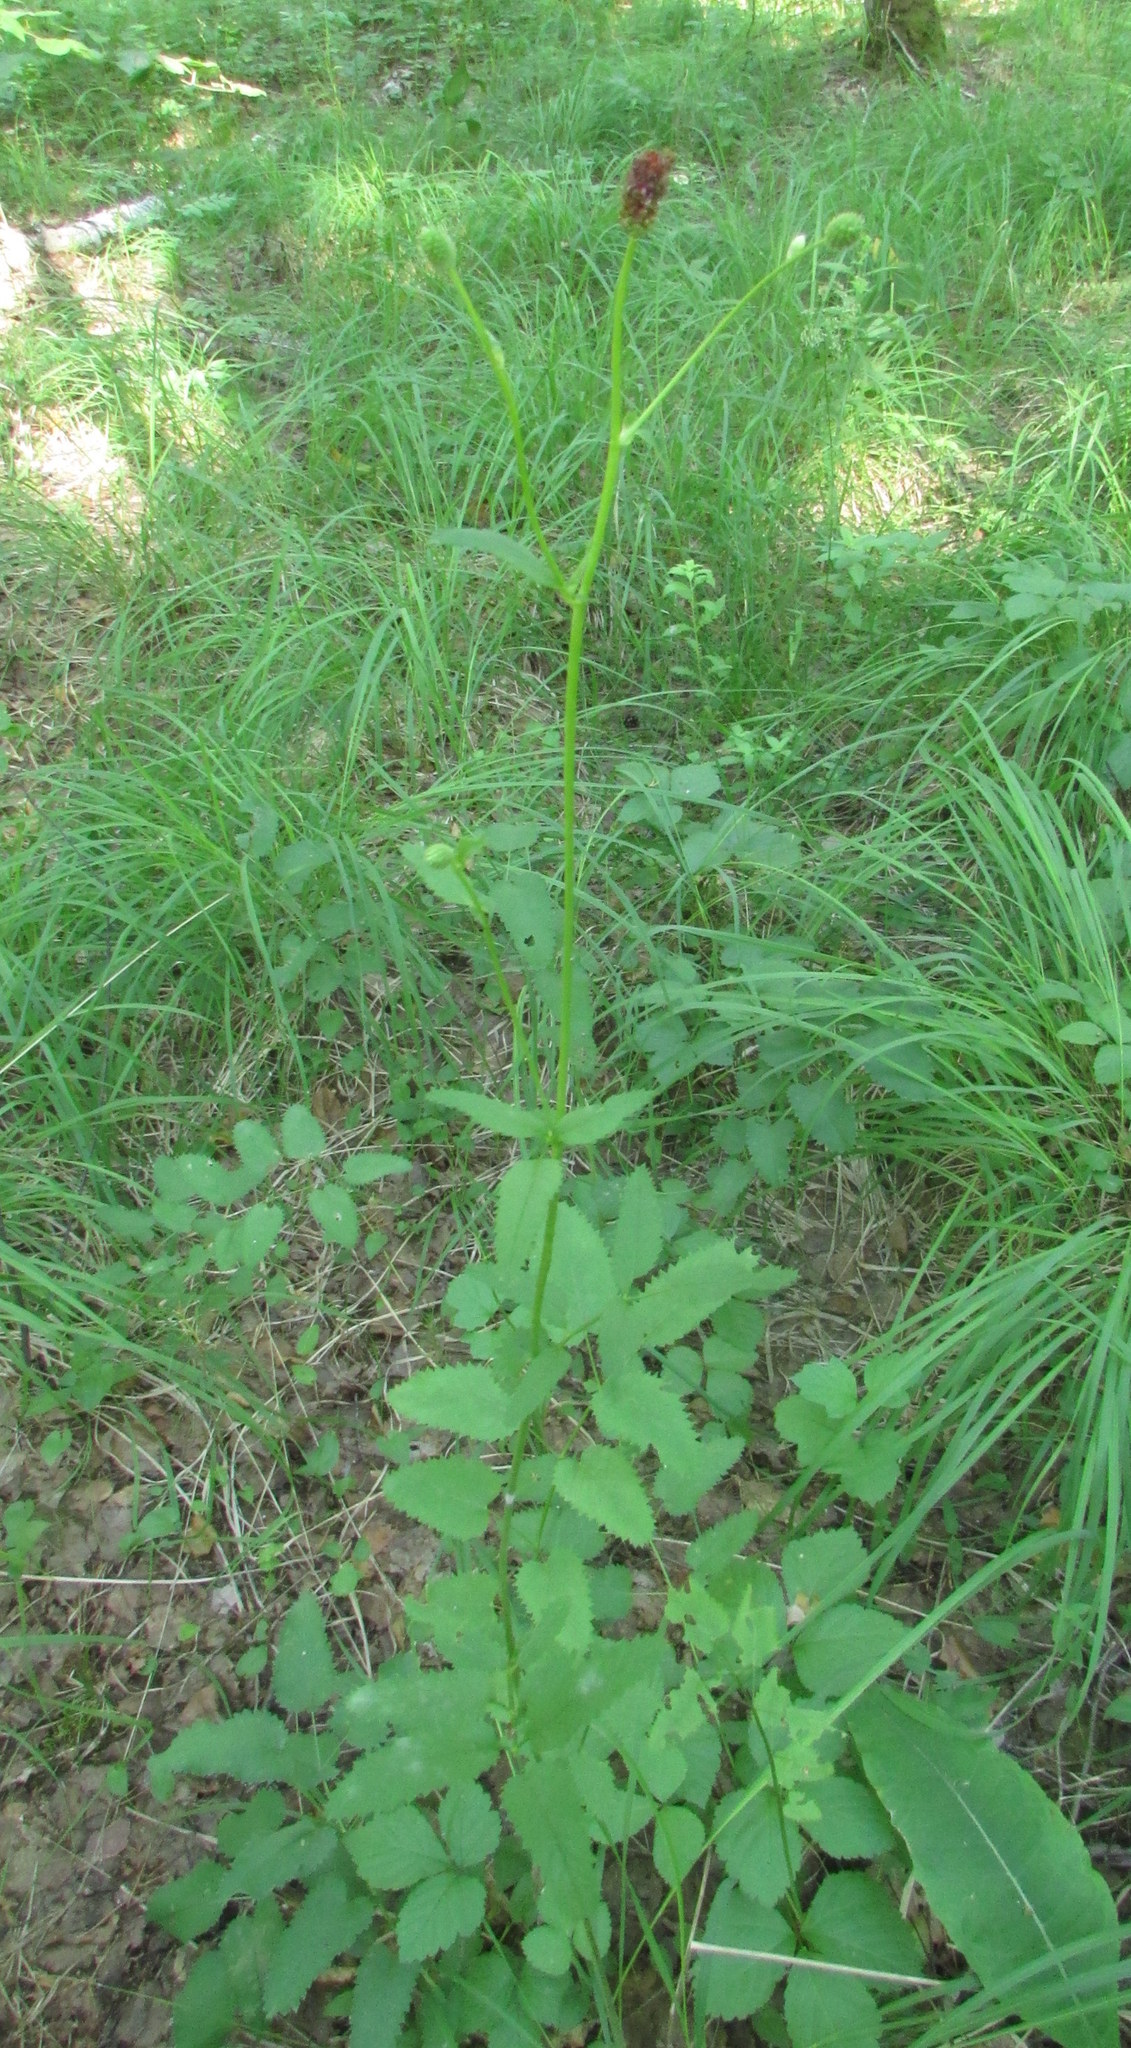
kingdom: Plantae
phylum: Tracheophyta
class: Magnoliopsida
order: Rosales
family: Rosaceae
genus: Sanguisorba
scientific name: Sanguisorba officinalis
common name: Great burnet
